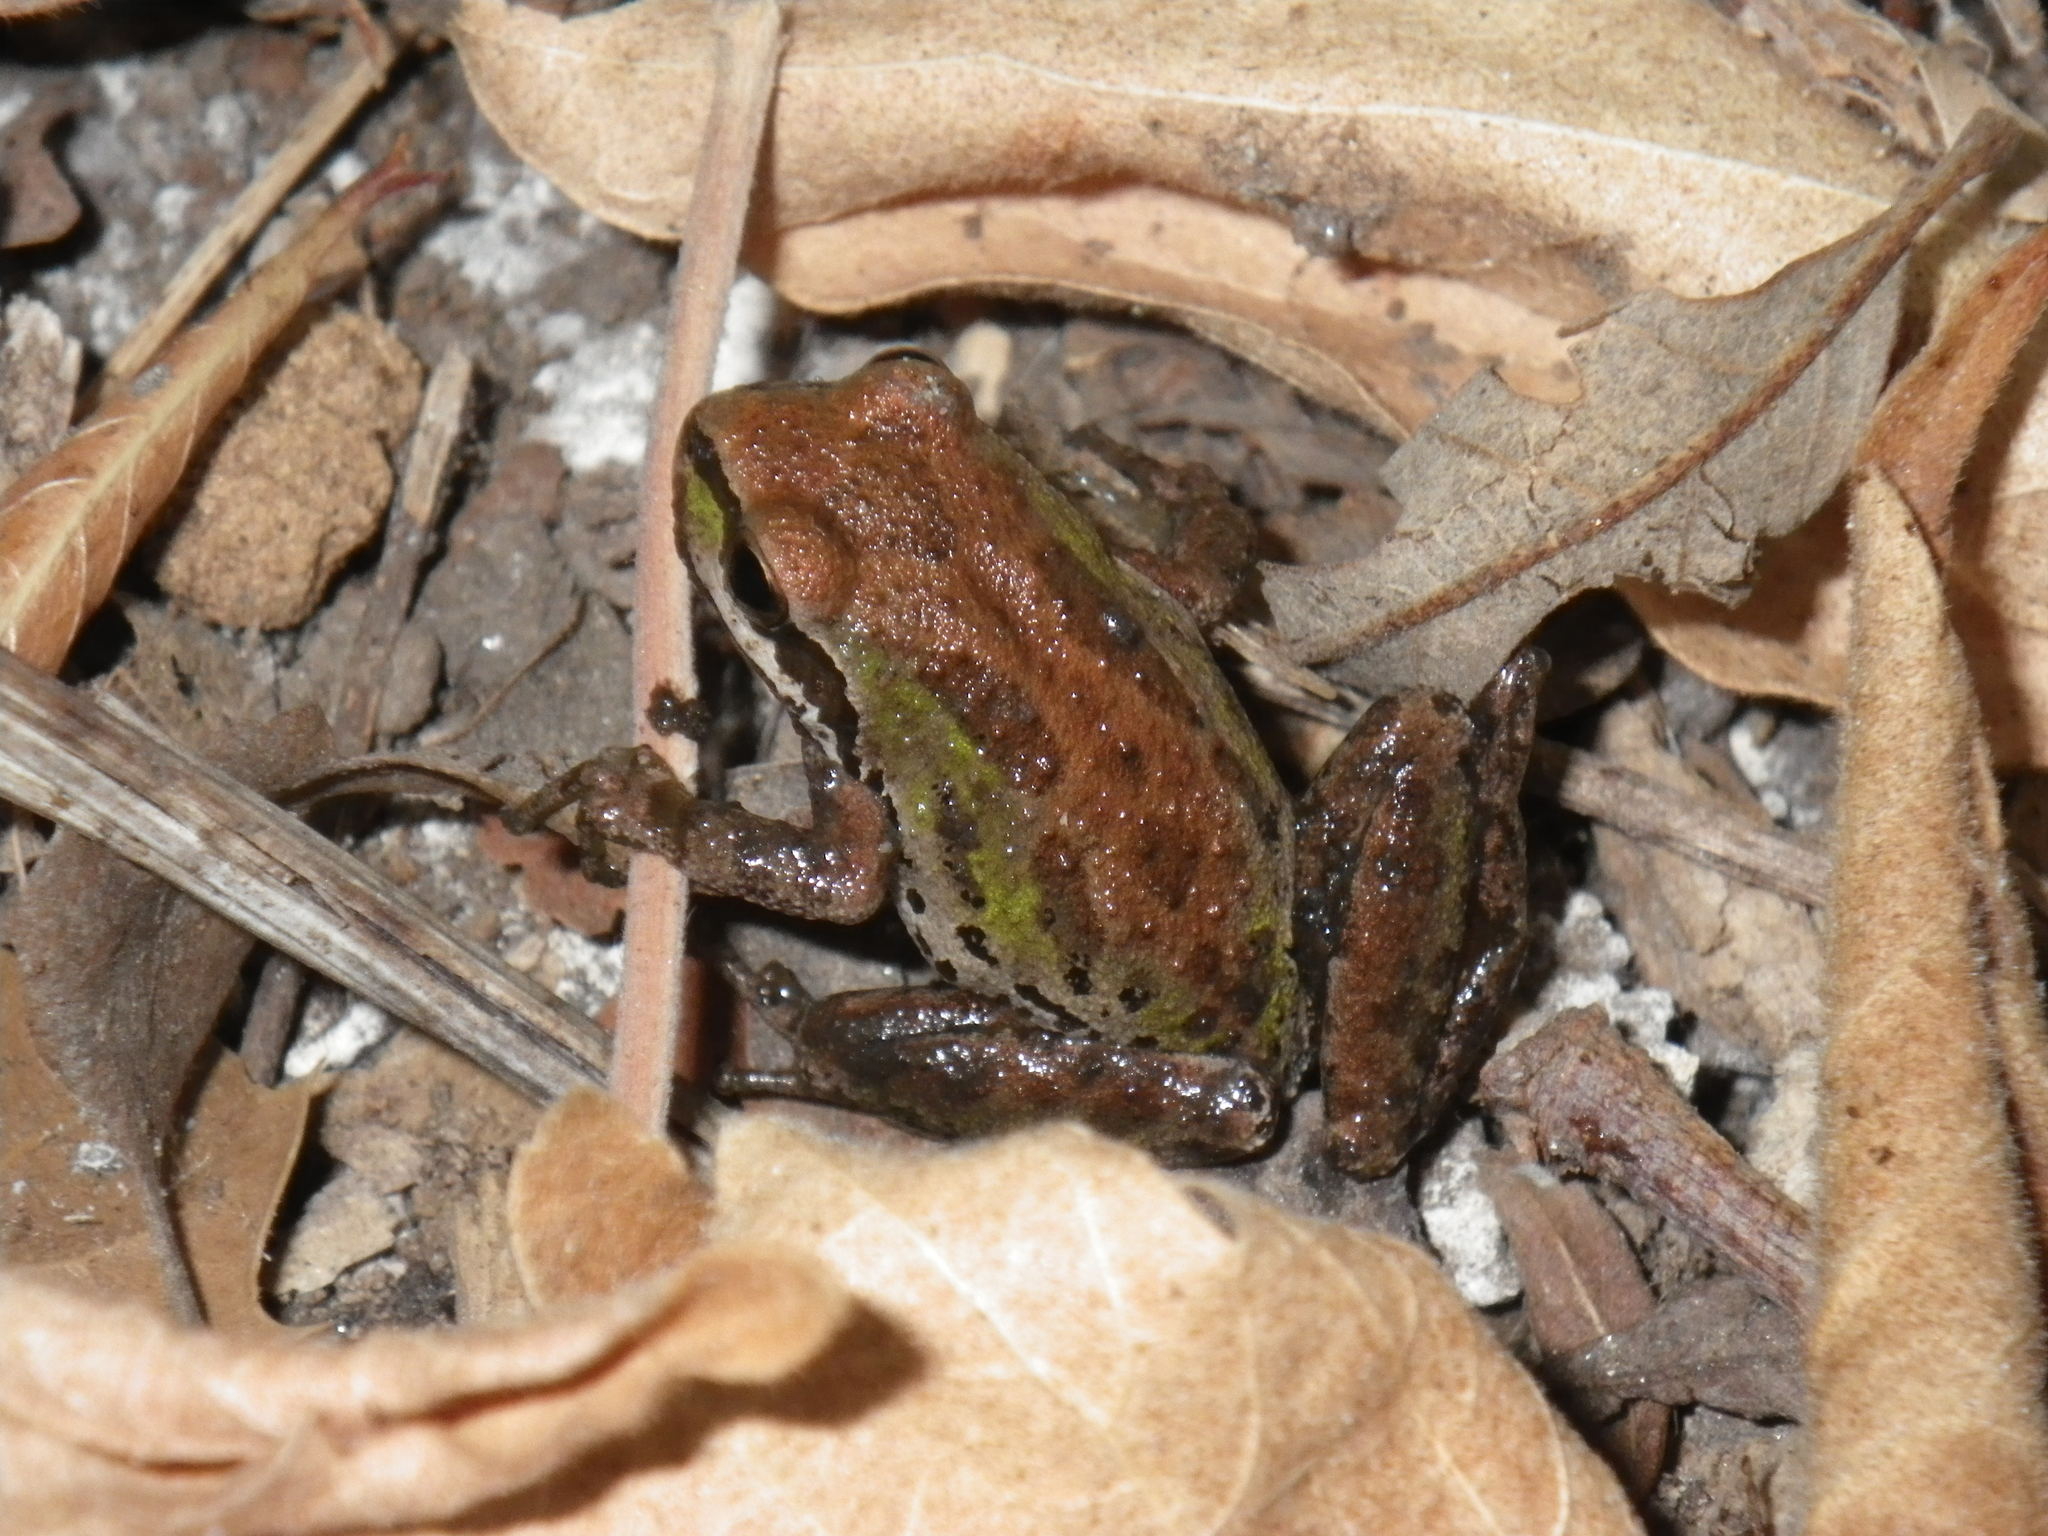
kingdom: Animalia
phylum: Chordata
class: Amphibia
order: Anura
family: Hylidae
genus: Pseudacris
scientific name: Pseudacris regilla
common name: Pacific chorus frog
